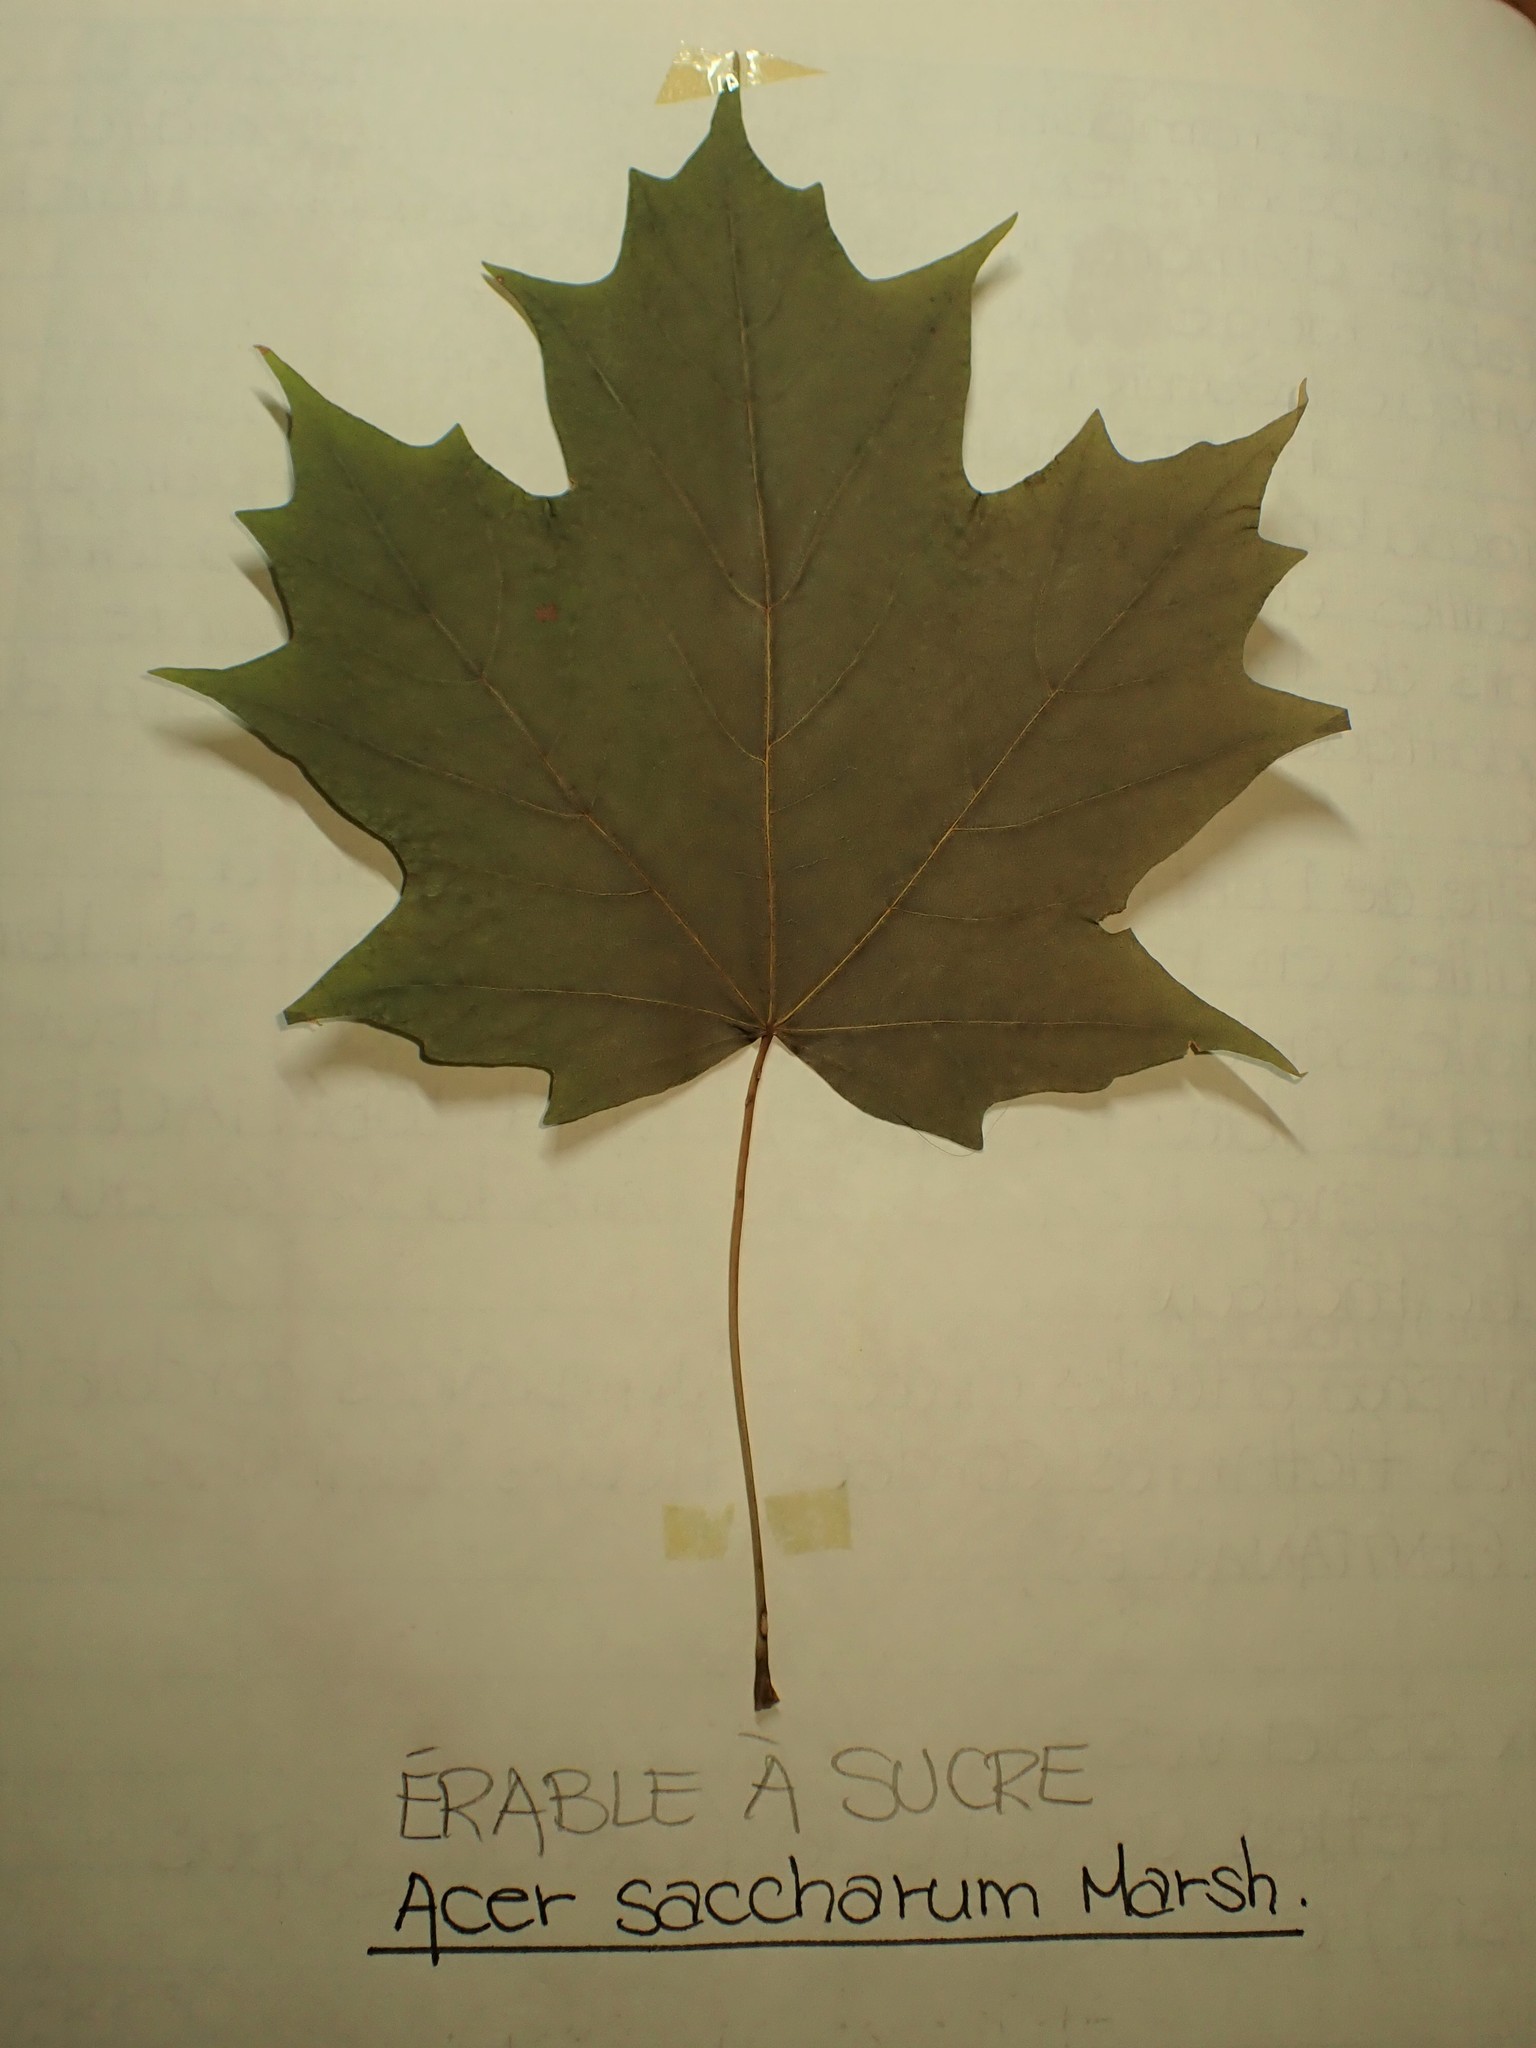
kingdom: Plantae
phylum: Tracheophyta
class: Magnoliopsida
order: Sapindales
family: Sapindaceae
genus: Acer
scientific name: Acer saccharum
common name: Sugar maple
